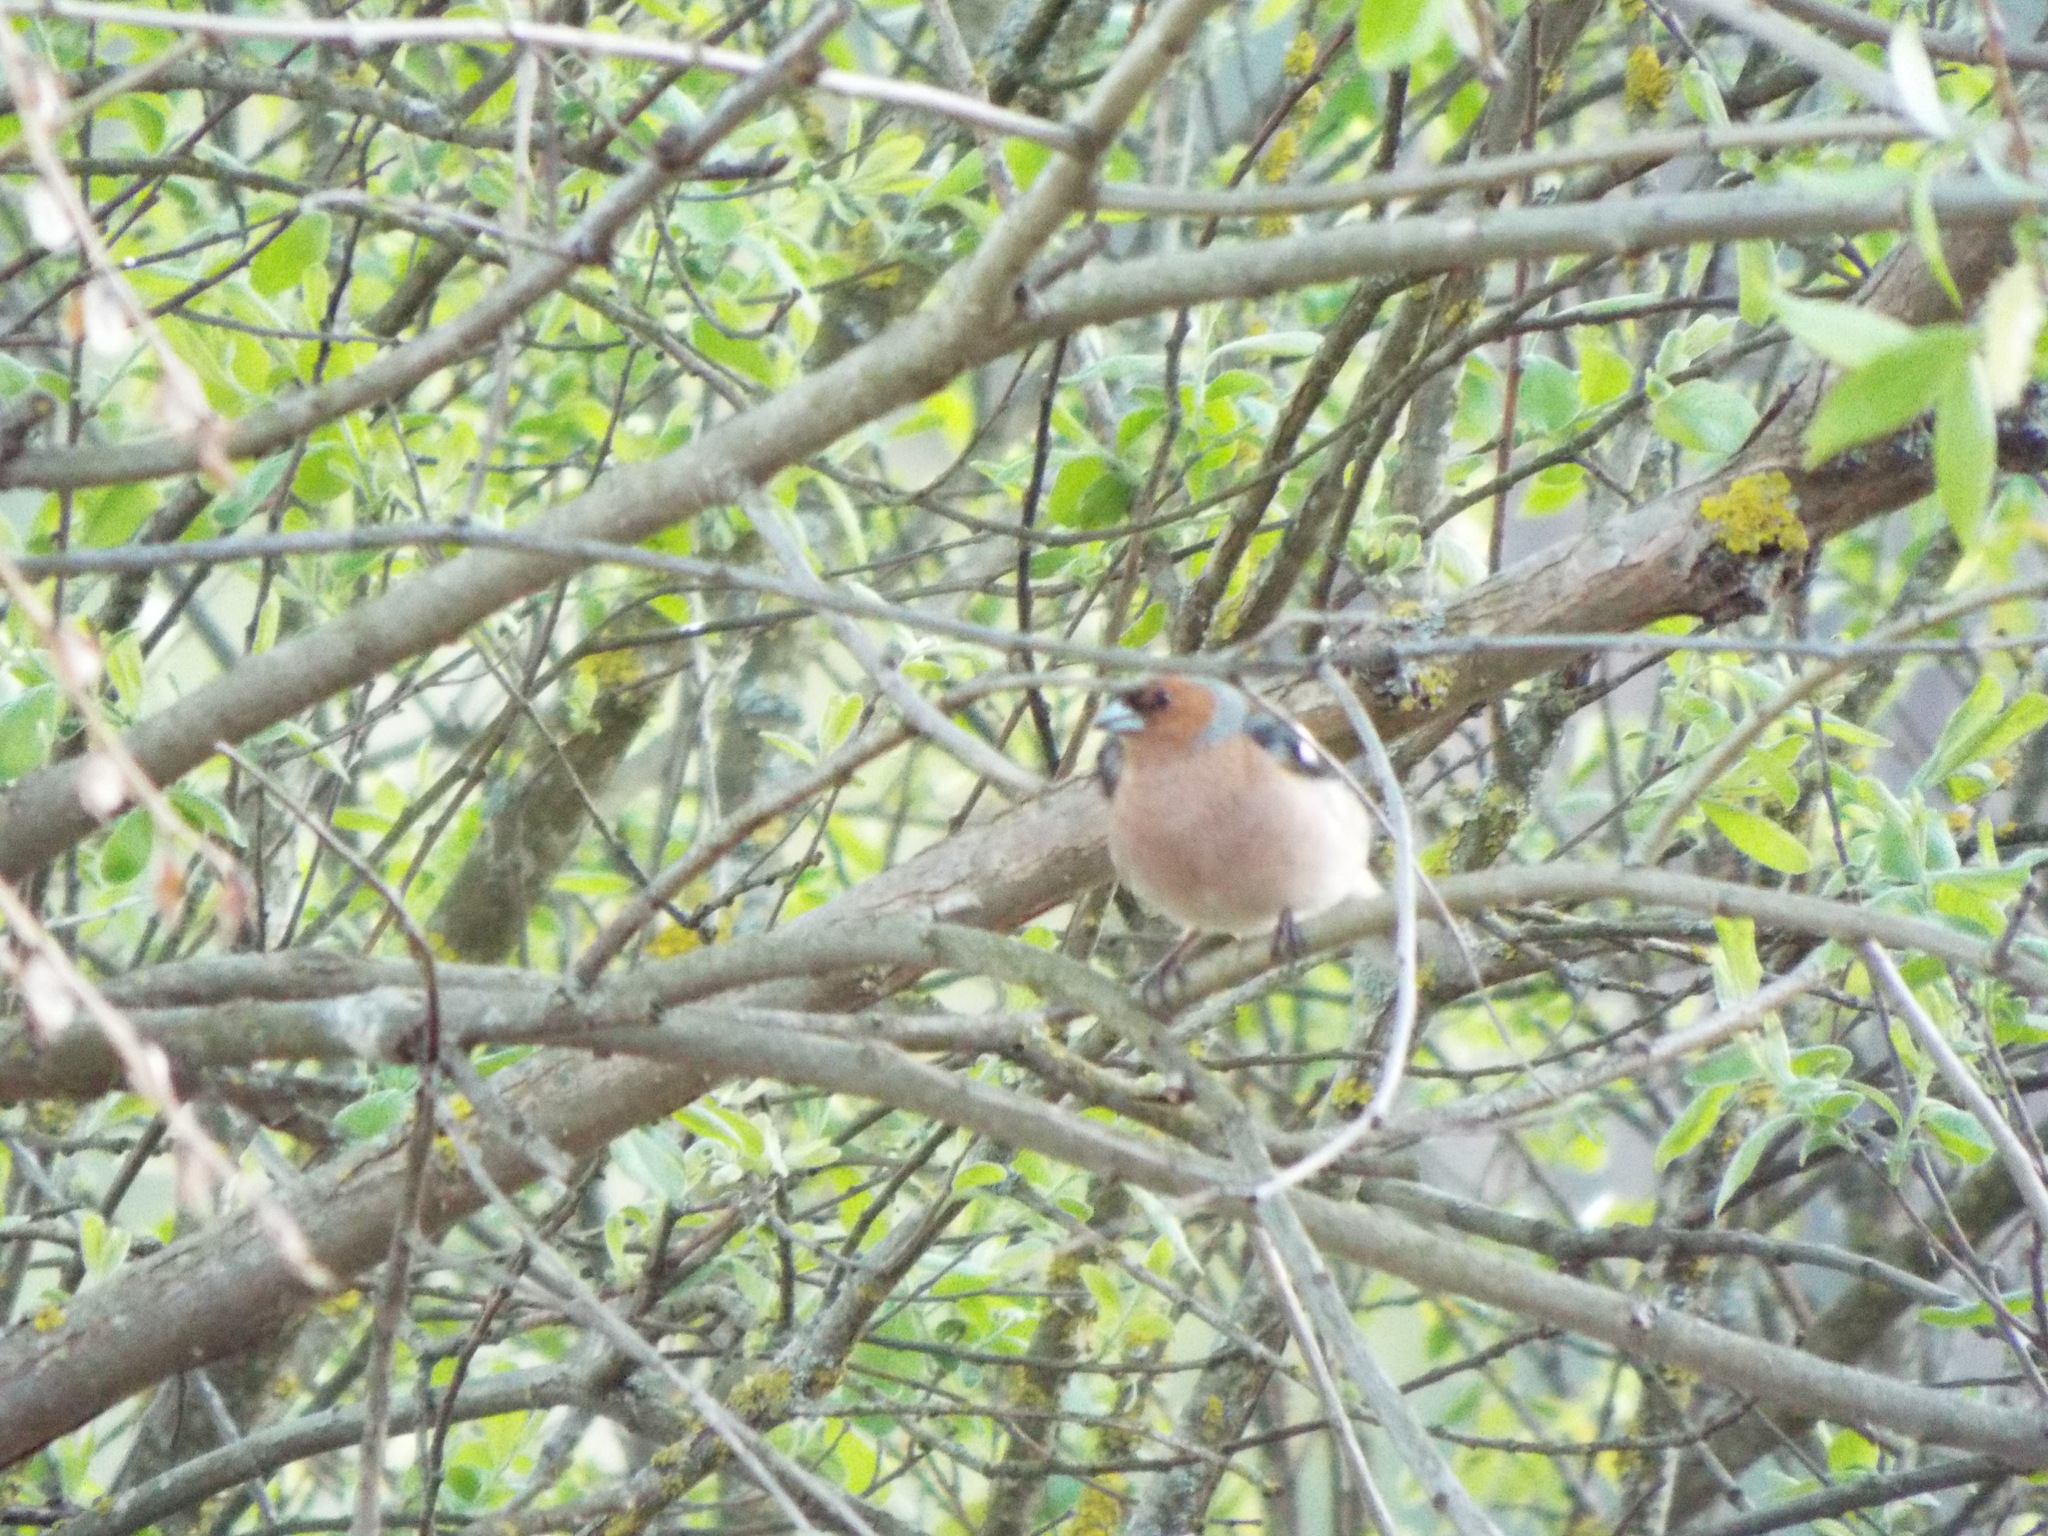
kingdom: Animalia
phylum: Chordata
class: Aves
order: Passeriformes
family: Fringillidae
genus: Fringilla
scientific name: Fringilla coelebs
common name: Common chaffinch
